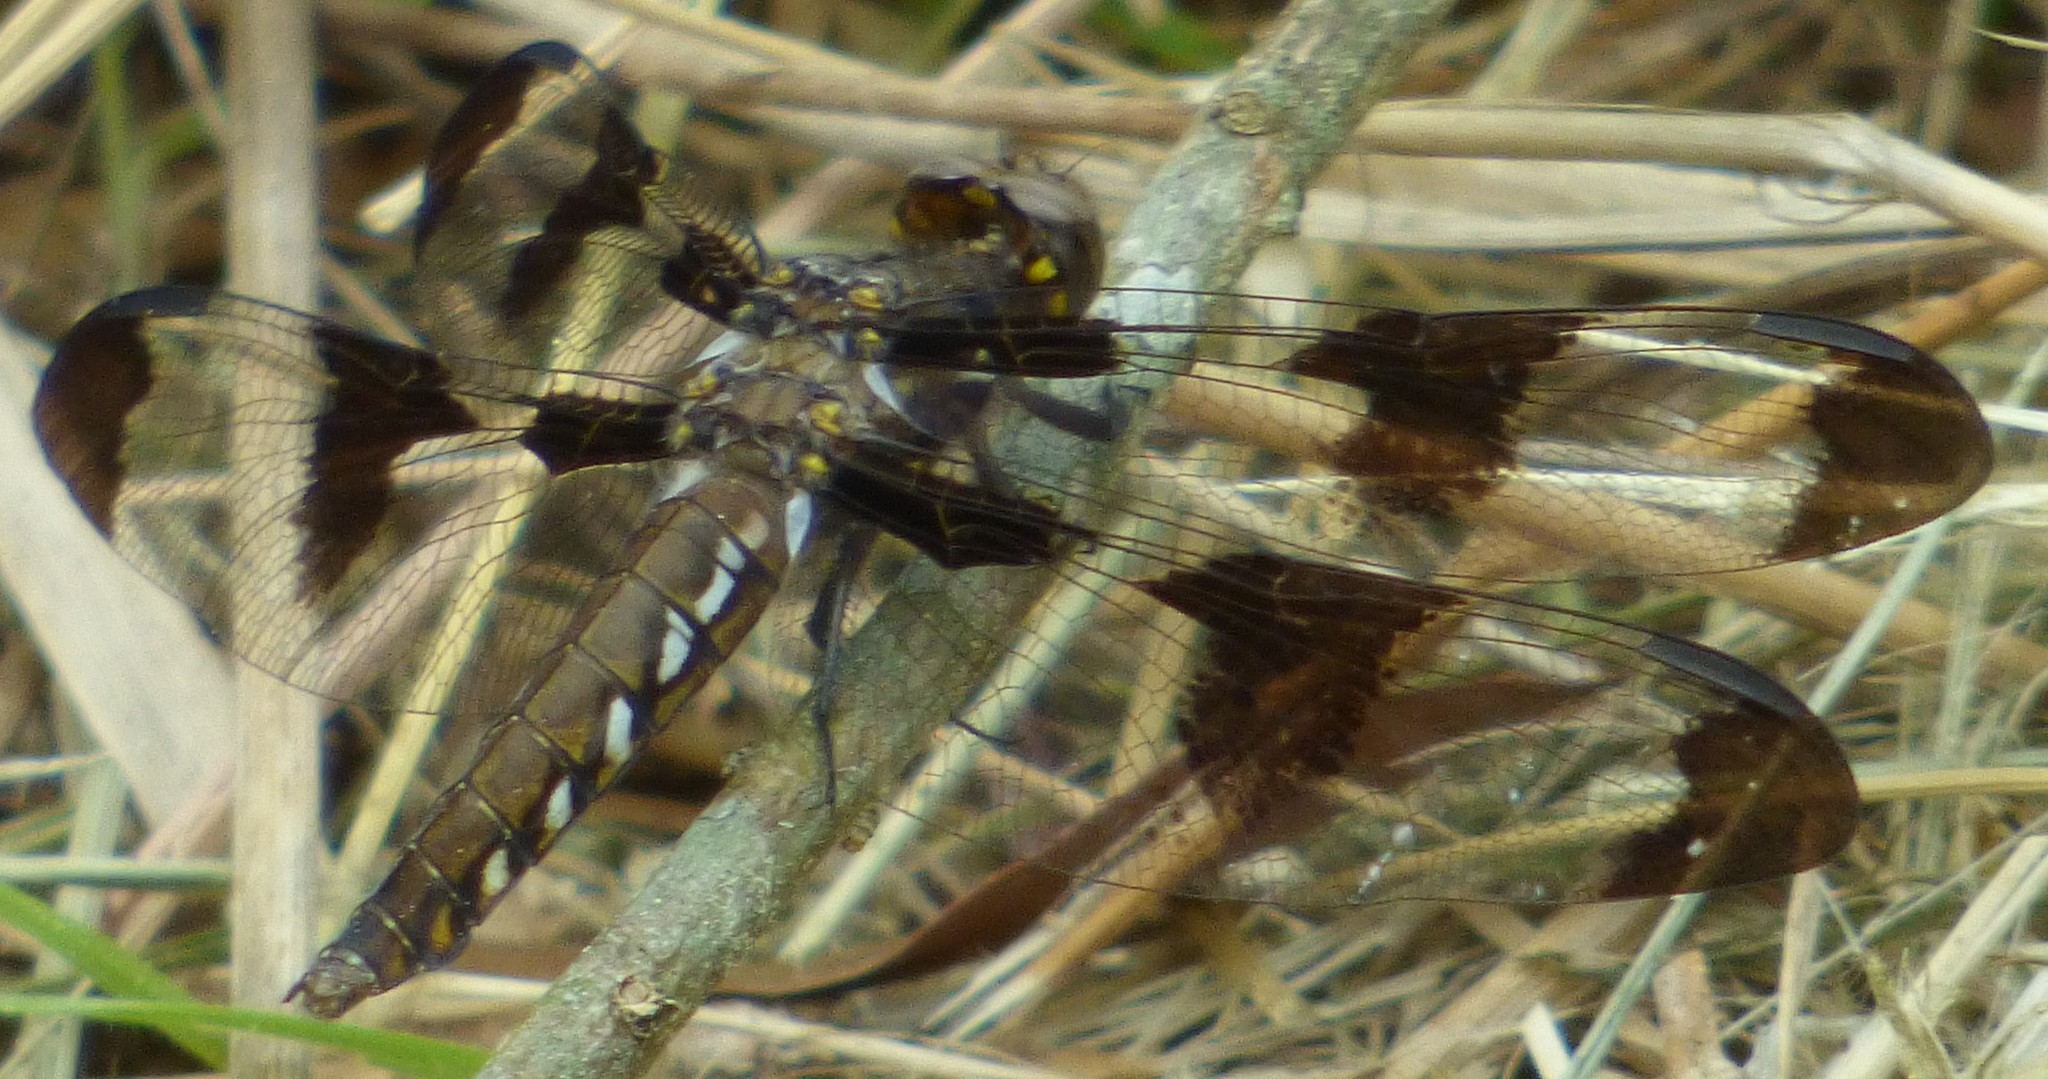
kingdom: Animalia
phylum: Arthropoda
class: Insecta
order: Odonata
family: Libellulidae
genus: Plathemis
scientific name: Plathemis lydia
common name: Common whitetail
